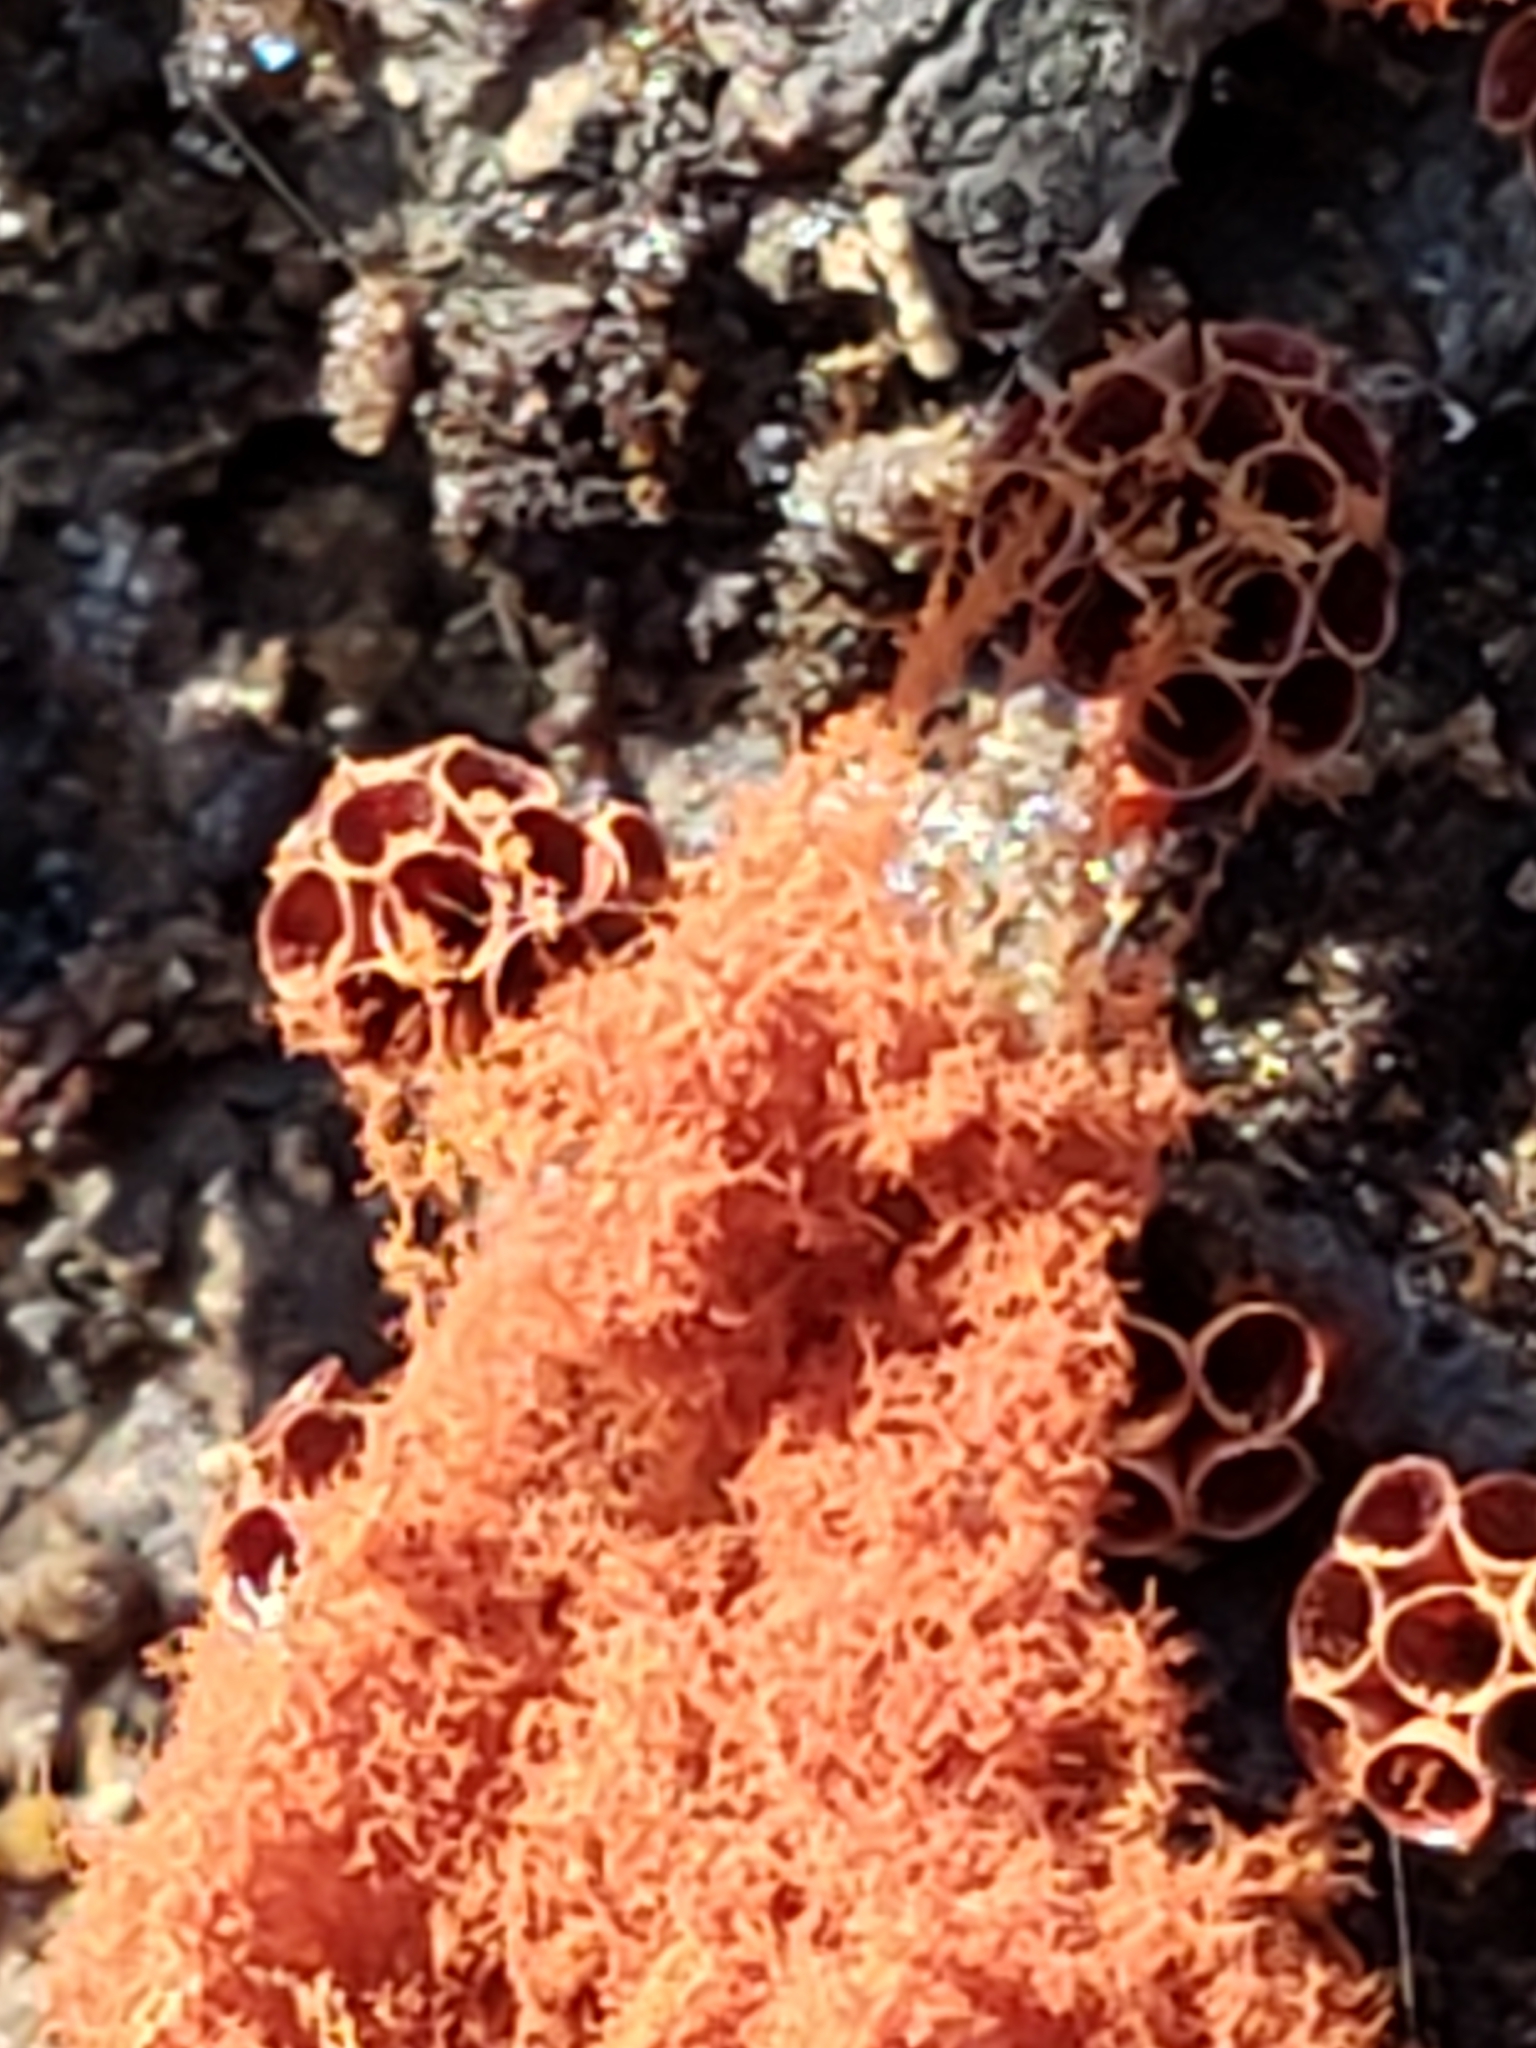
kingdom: Protozoa
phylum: Mycetozoa
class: Myxomycetes
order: Trichiales
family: Trichiaceae
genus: Metatrichia
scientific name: Metatrichia vesparia
